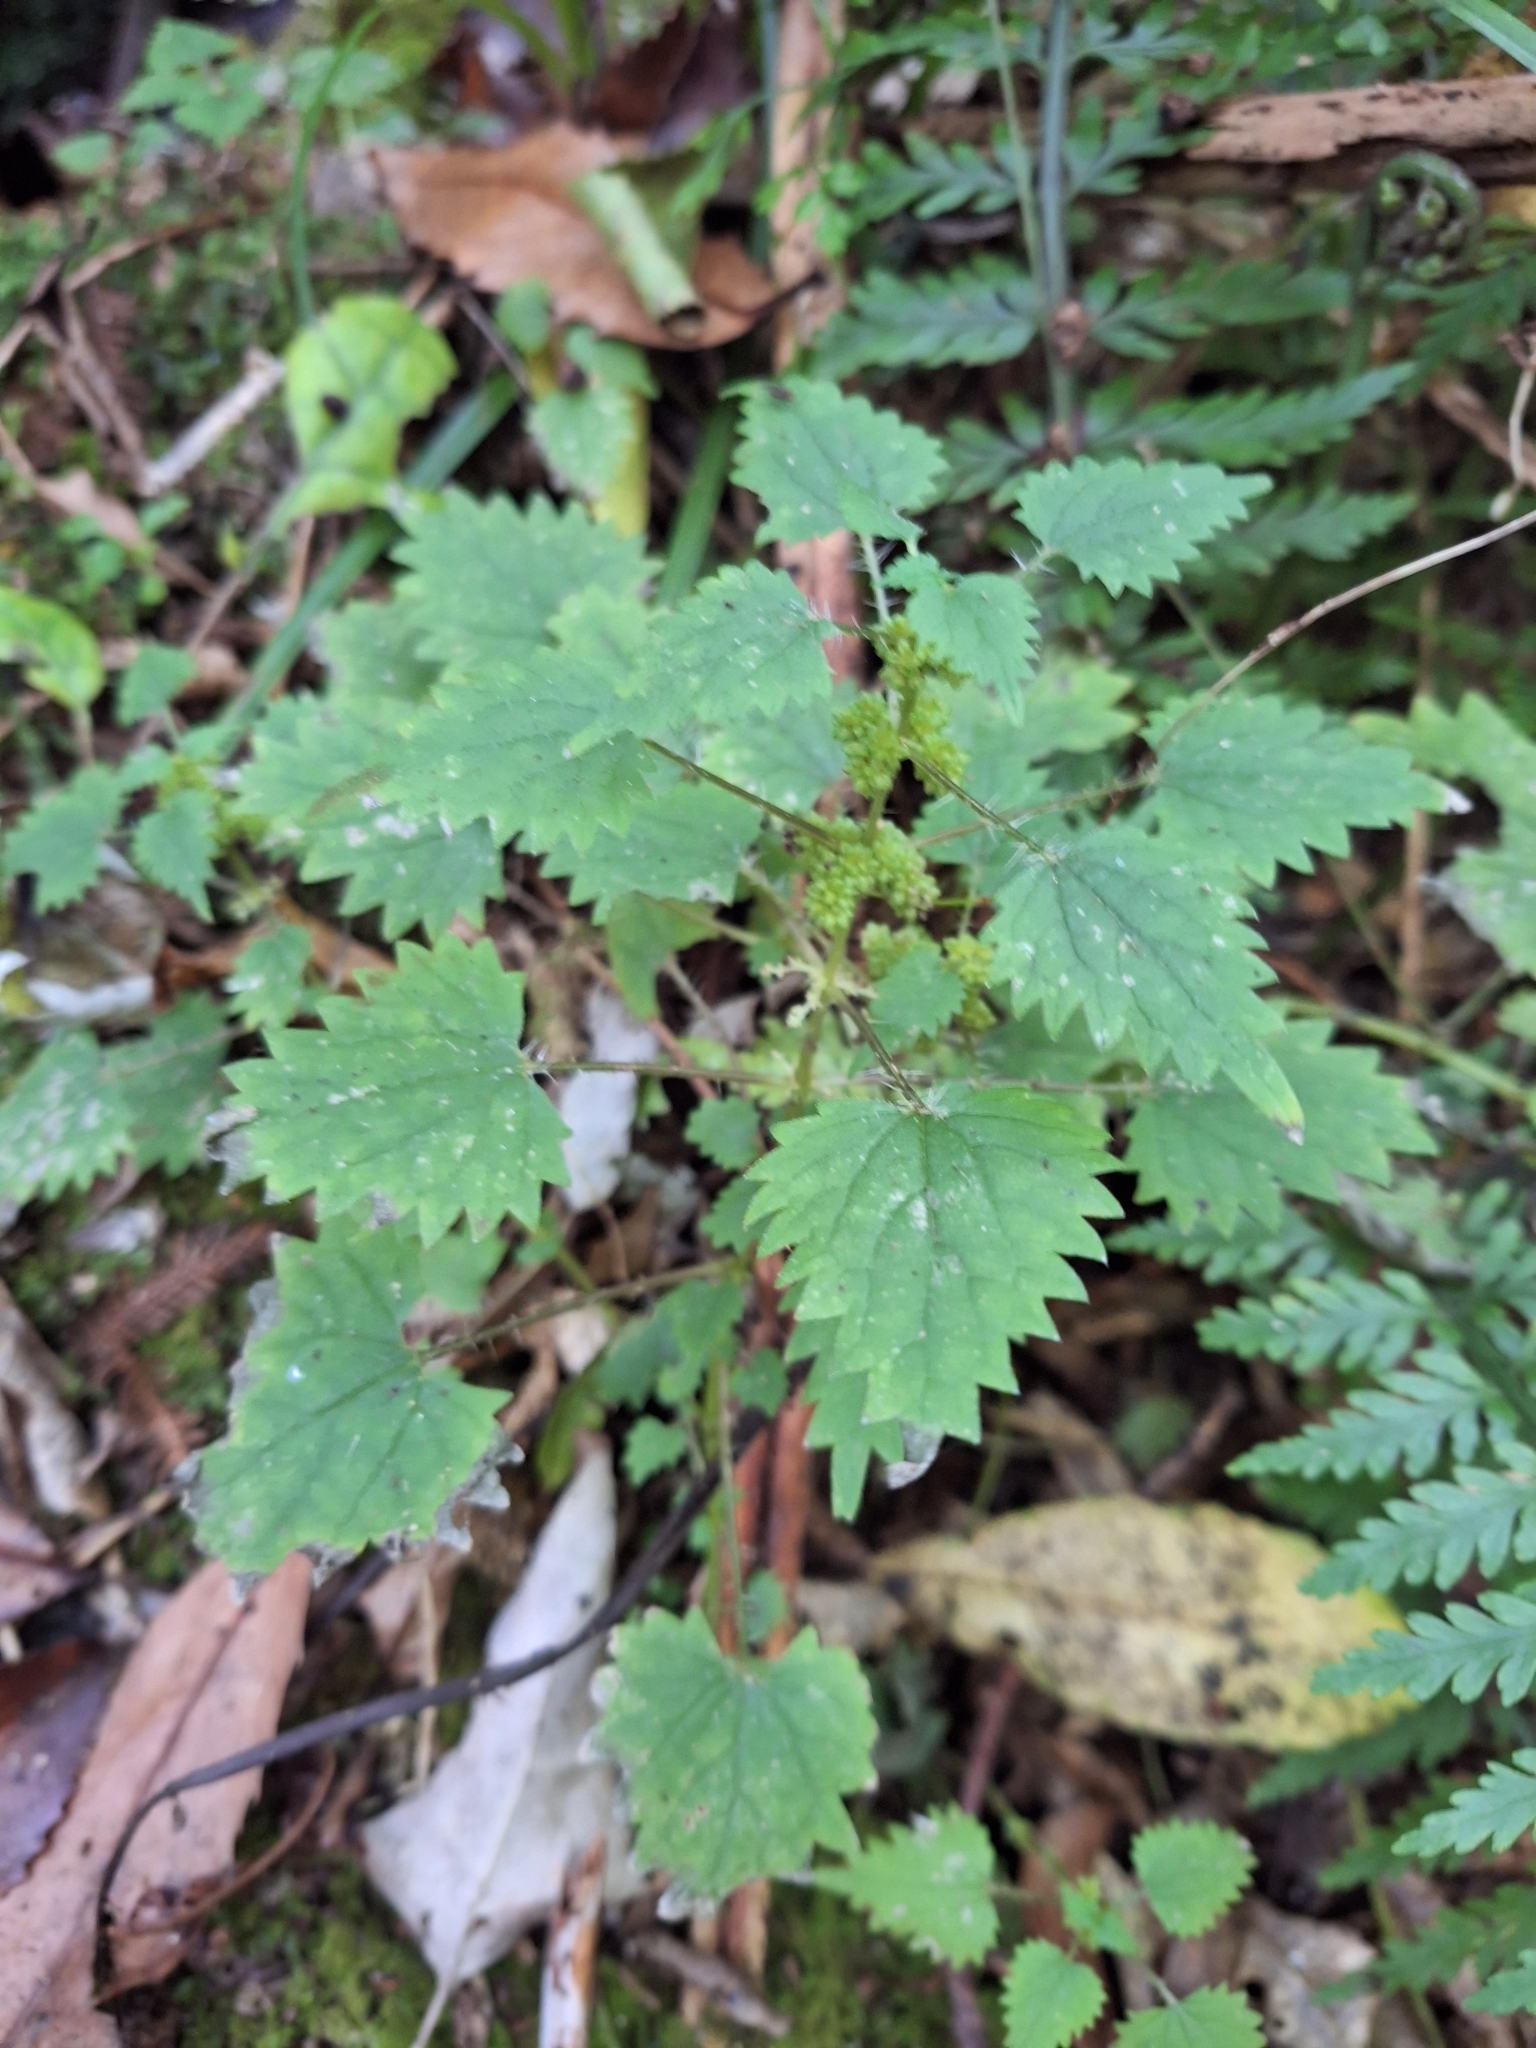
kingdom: Plantae
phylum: Tracheophyta
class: Magnoliopsida
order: Rosales
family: Urticaceae
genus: Urtica
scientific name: Urtica sykesii
